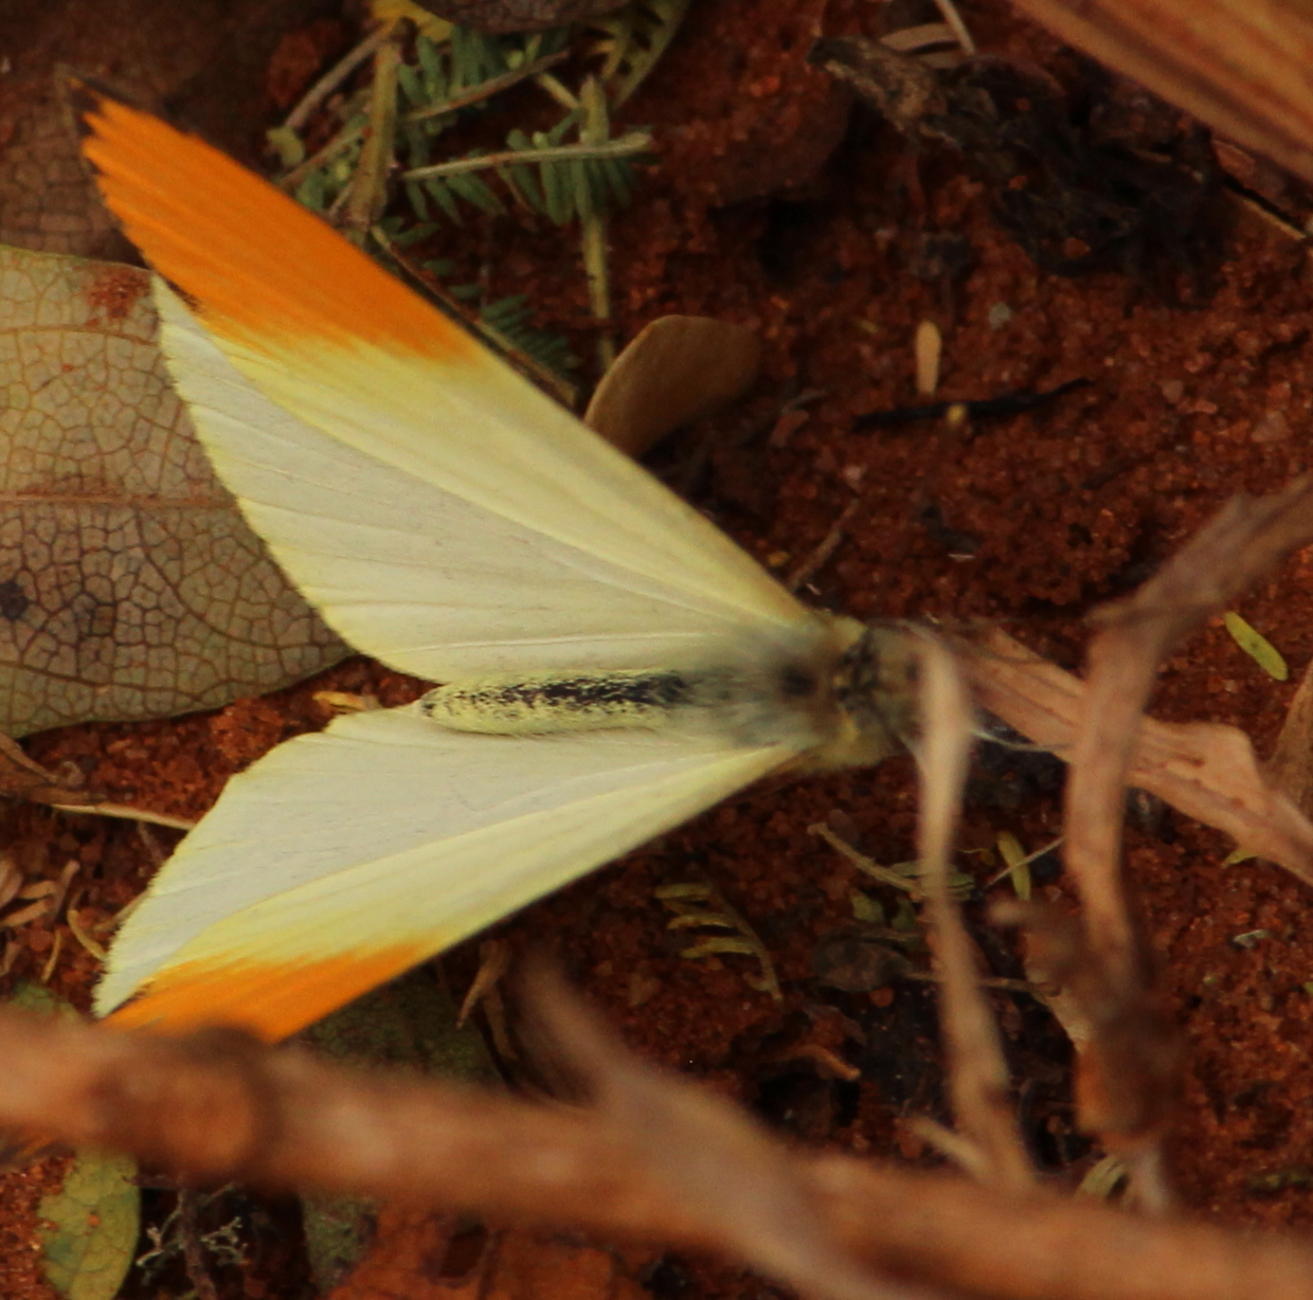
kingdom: Animalia
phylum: Arthropoda
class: Insecta
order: Lepidoptera
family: Pieridae
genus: Colotis
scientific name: Colotis auxo
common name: Sulphur orange tip
